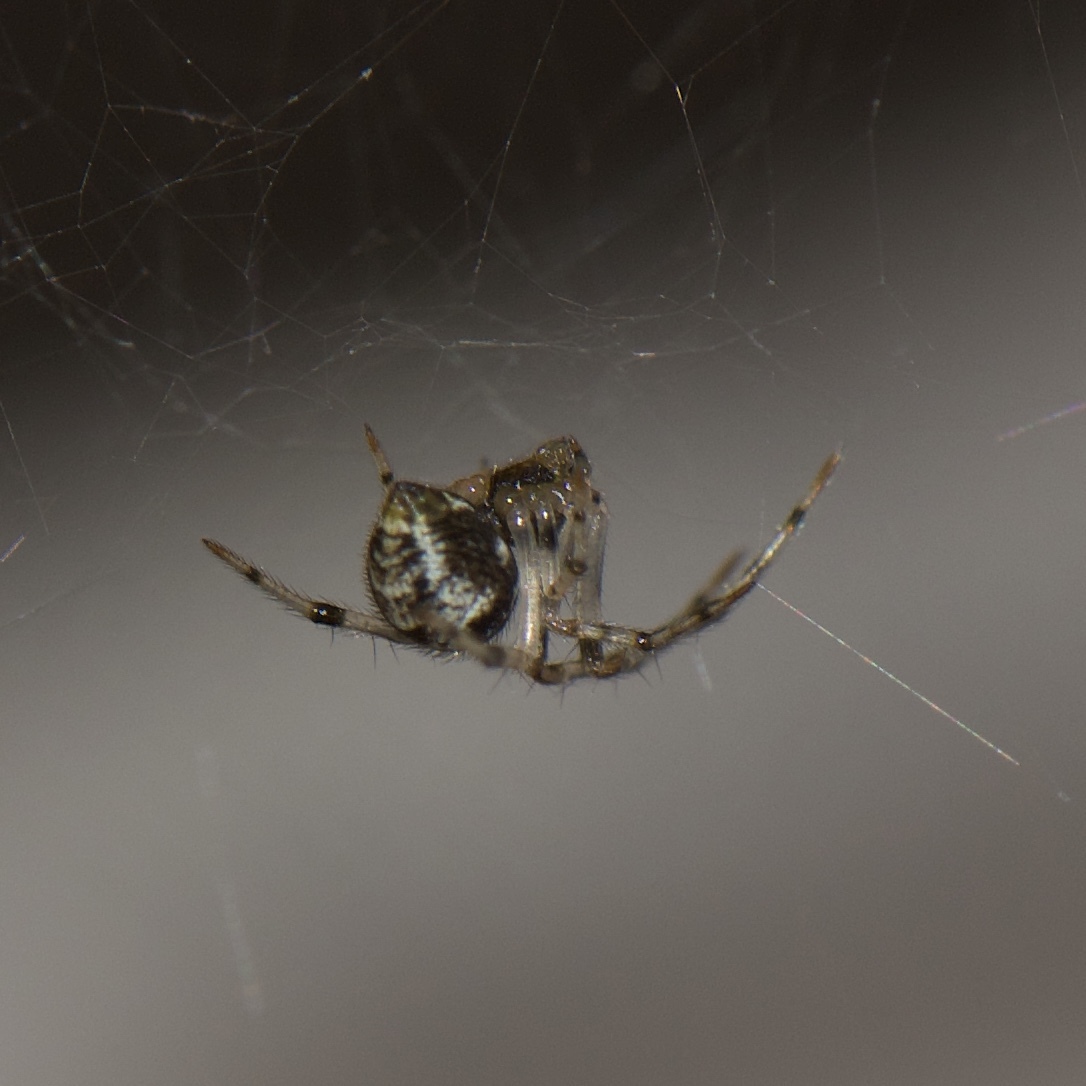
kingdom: Animalia
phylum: Arthropoda
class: Arachnida
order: Araneae
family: Theridiidae
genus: Parasteatoda
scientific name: Parasteatoda tepidariorum
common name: Common house spider
